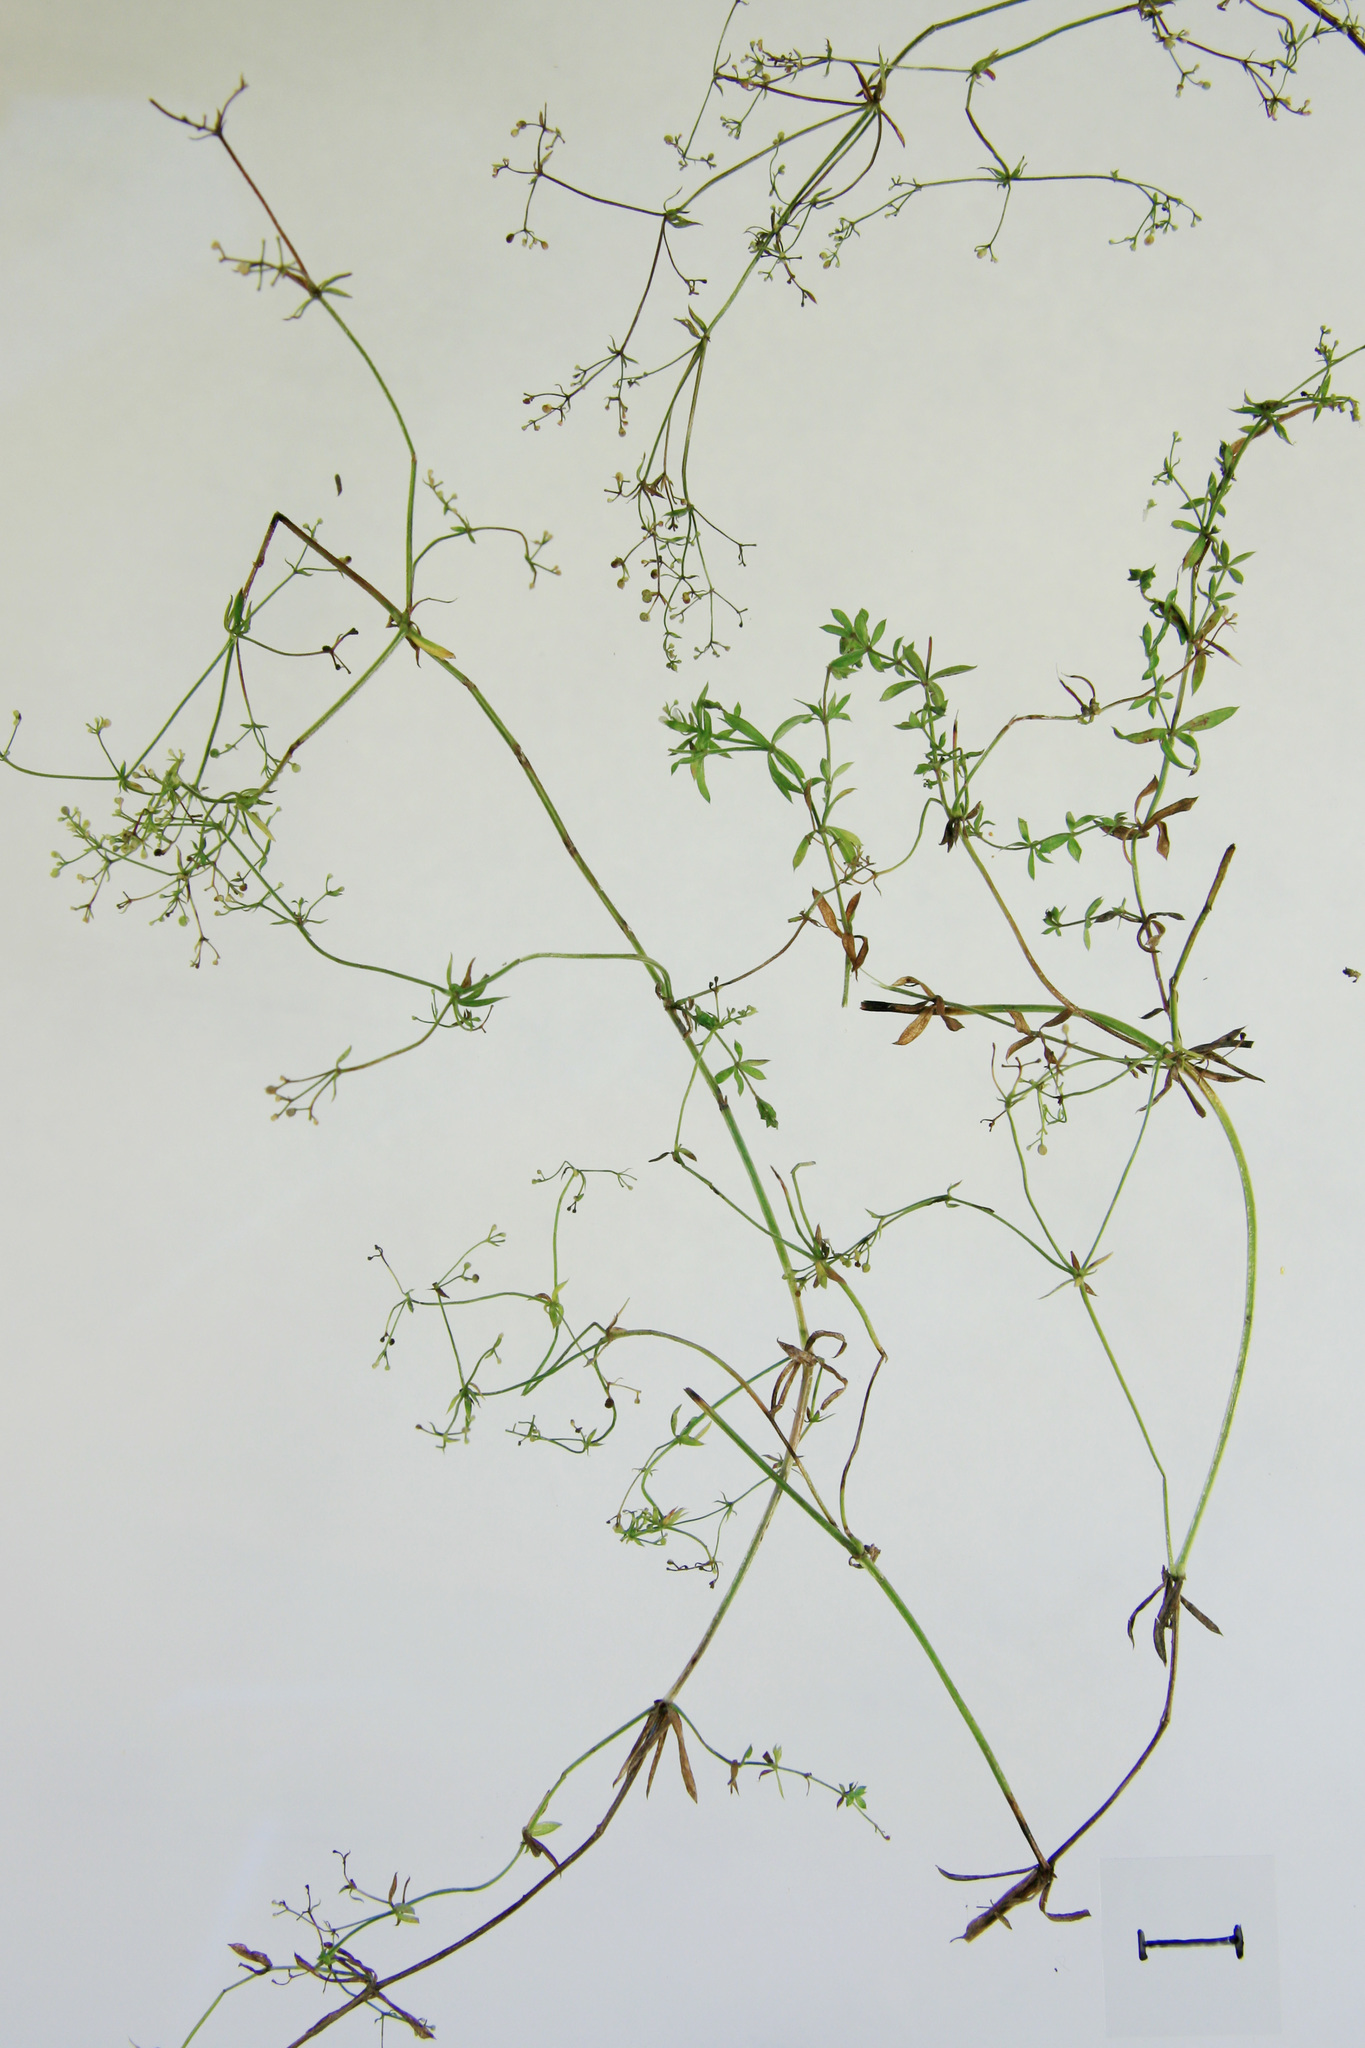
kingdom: Plantae
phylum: Tracheophyta
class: Magnoliopsida
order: Gentianales
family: Rubiaceae
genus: Galium
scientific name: Galium uliginosum
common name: Fen bedstraw
